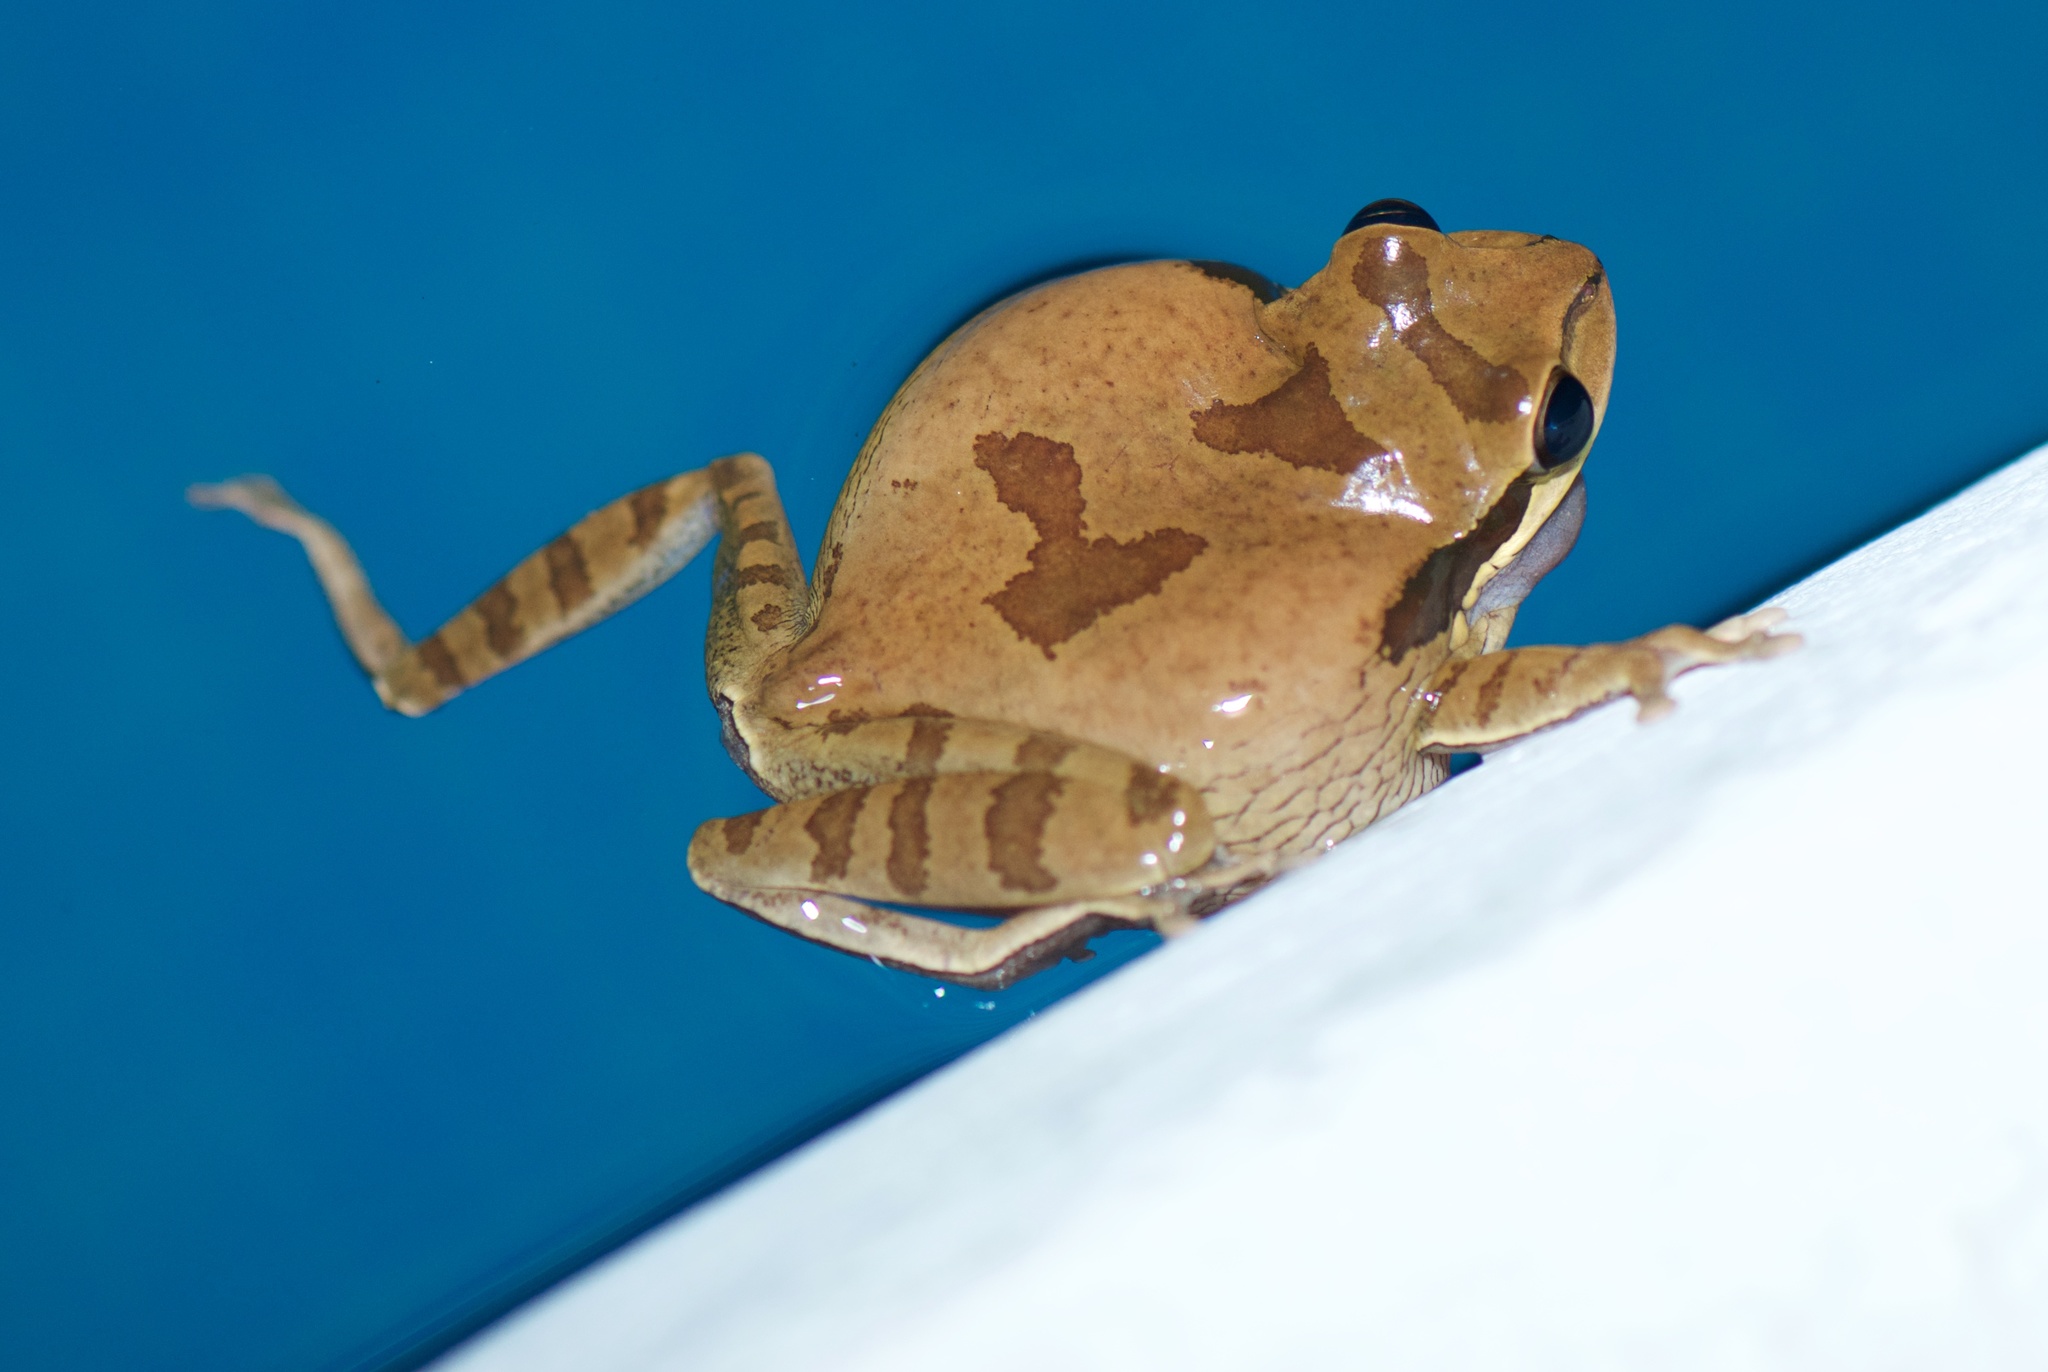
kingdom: Animalia
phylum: Chordata
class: Amphibia
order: Anura
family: Hylidae
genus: Smilisca
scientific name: Smilisca phaeota
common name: Central american smilisca
